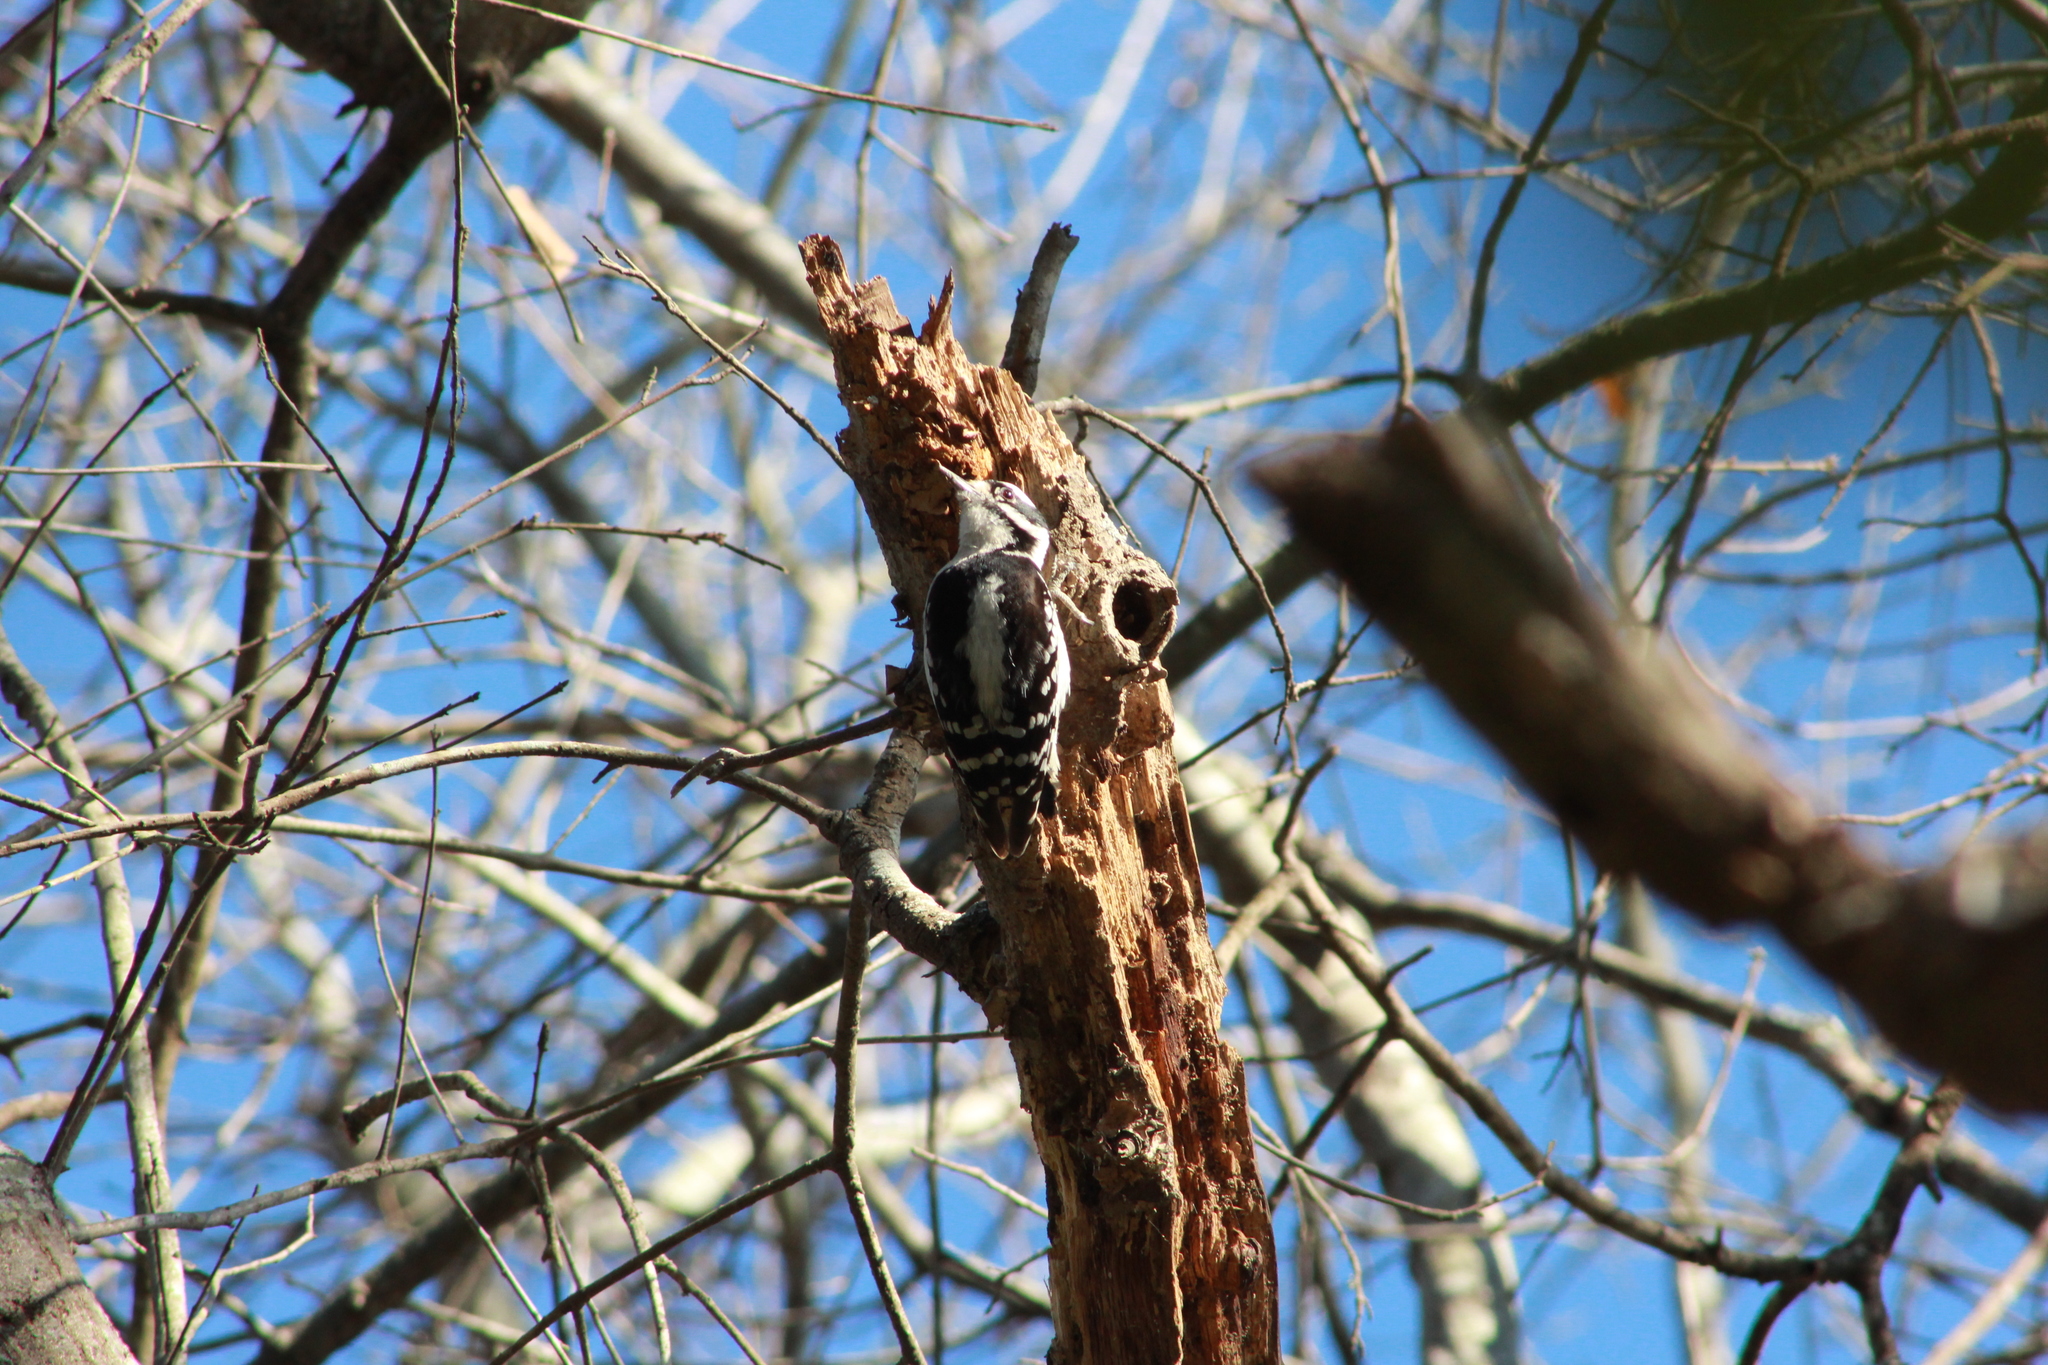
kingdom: Animalia
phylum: Chordata
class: Aves
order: Piciformes
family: Picidae
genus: Dryobates
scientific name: Dryobates pubescens
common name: Downy woodpecker
